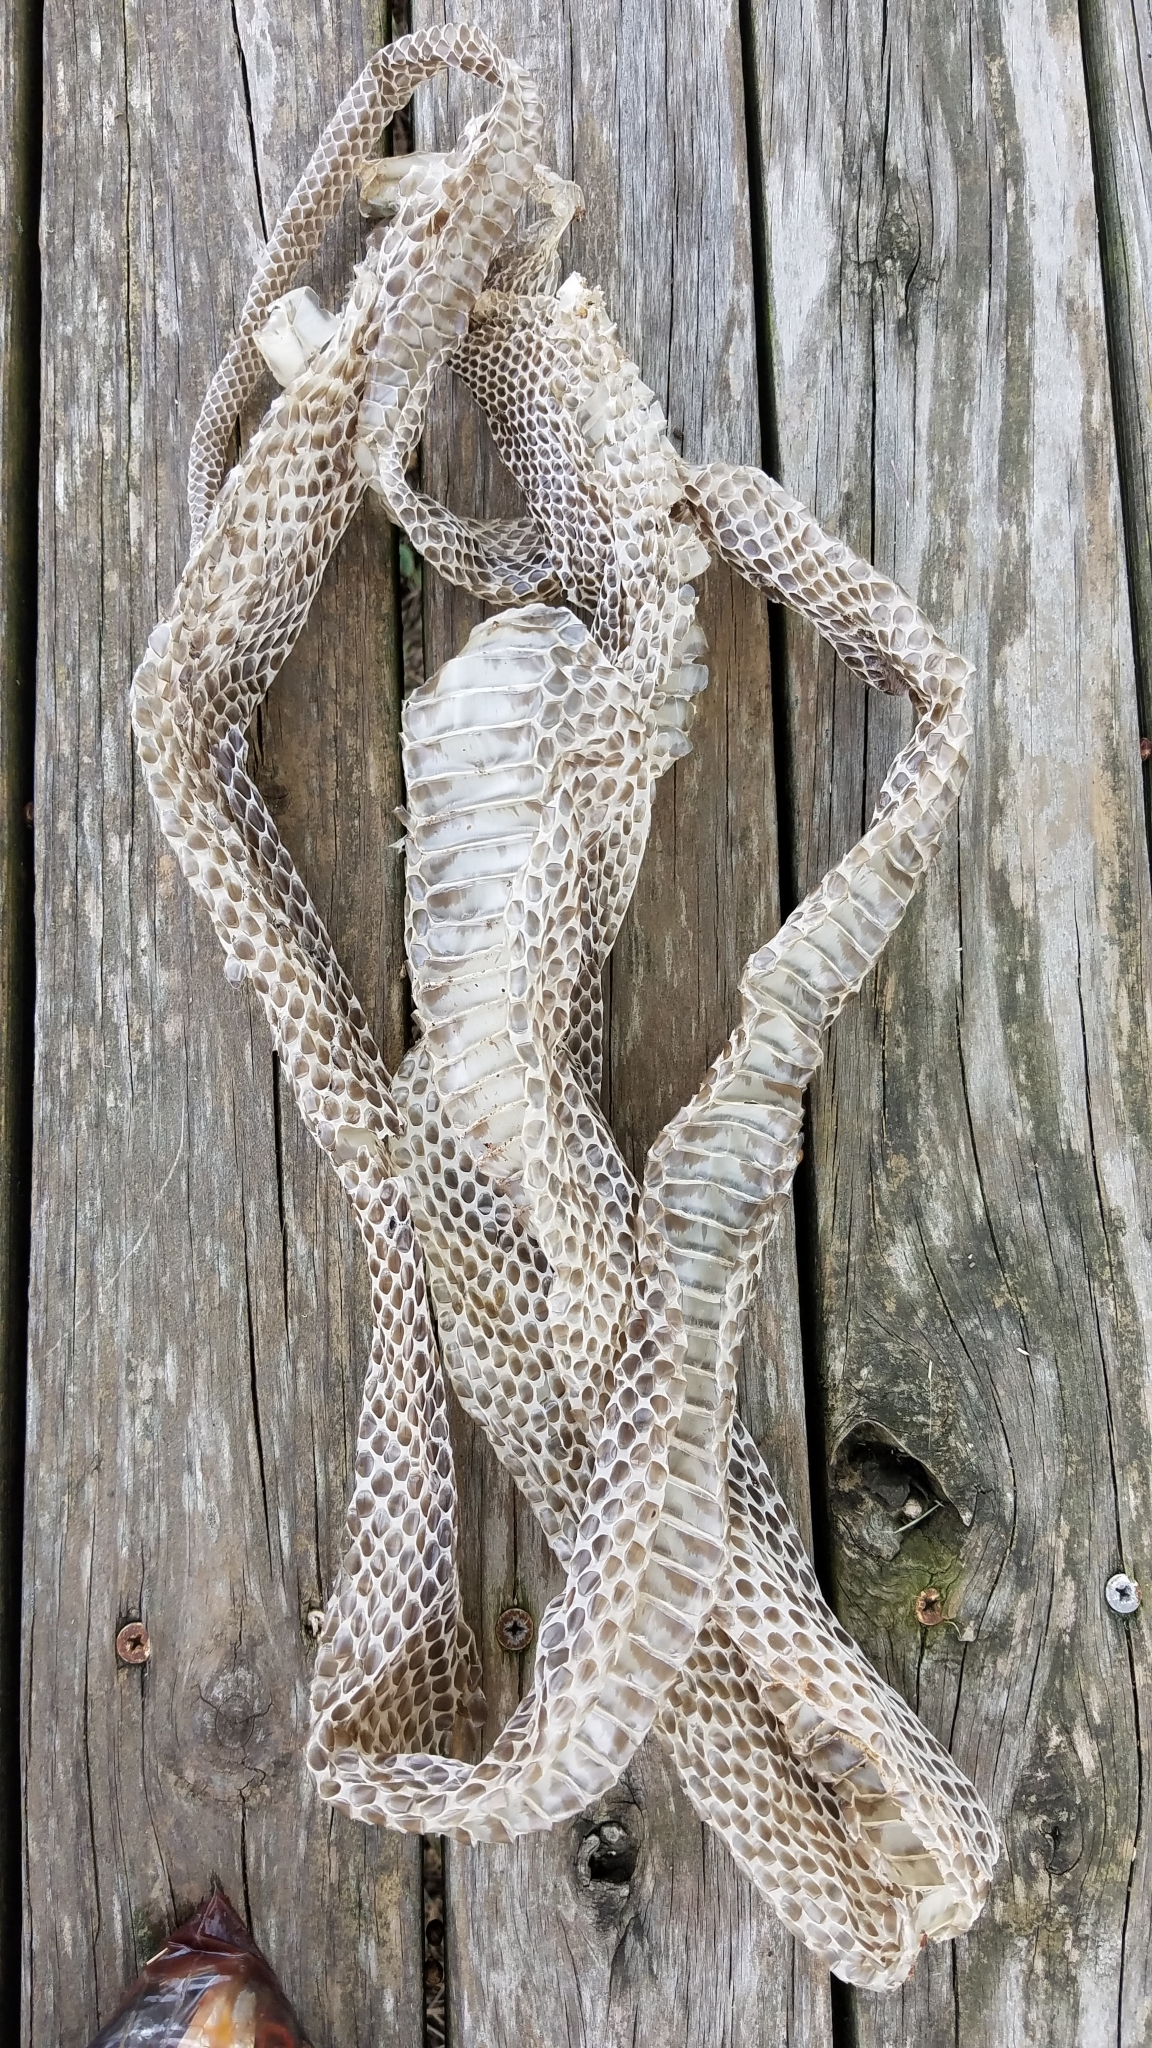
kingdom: Animalia
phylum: Chordata
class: Squamata
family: Colubridae
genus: Pantherophis
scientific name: Pantherophis alleghaniensis
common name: Eastern rat snake
